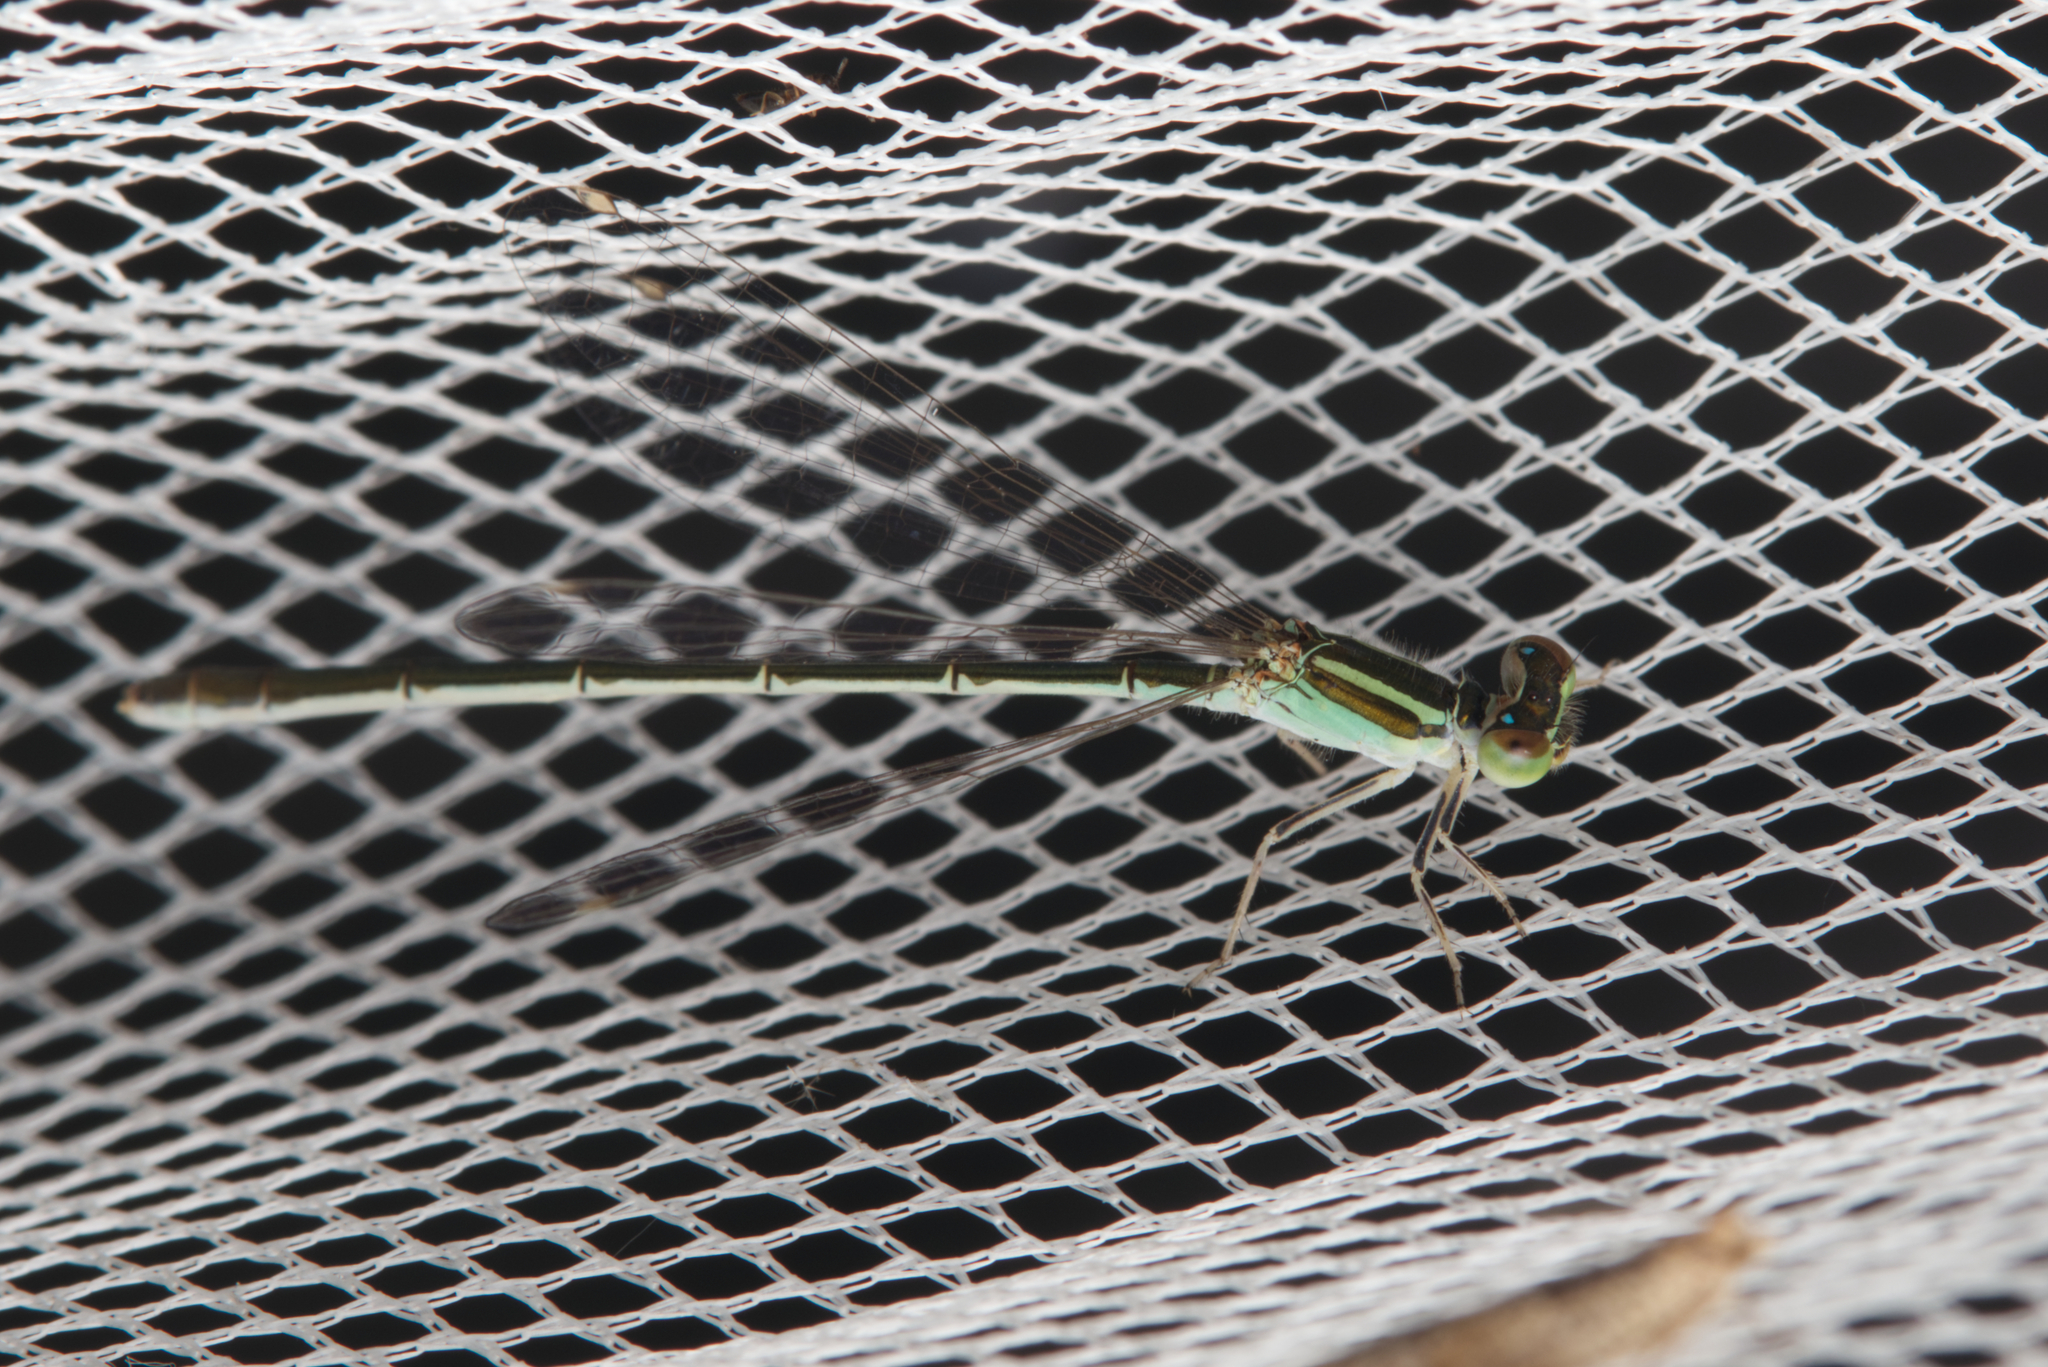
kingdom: Animalia
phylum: Arthropoda
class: Insecta
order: Odonata
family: Coenagrionidae
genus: Ischnura
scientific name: Ischnura aurora
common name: Gossamer damselfly
